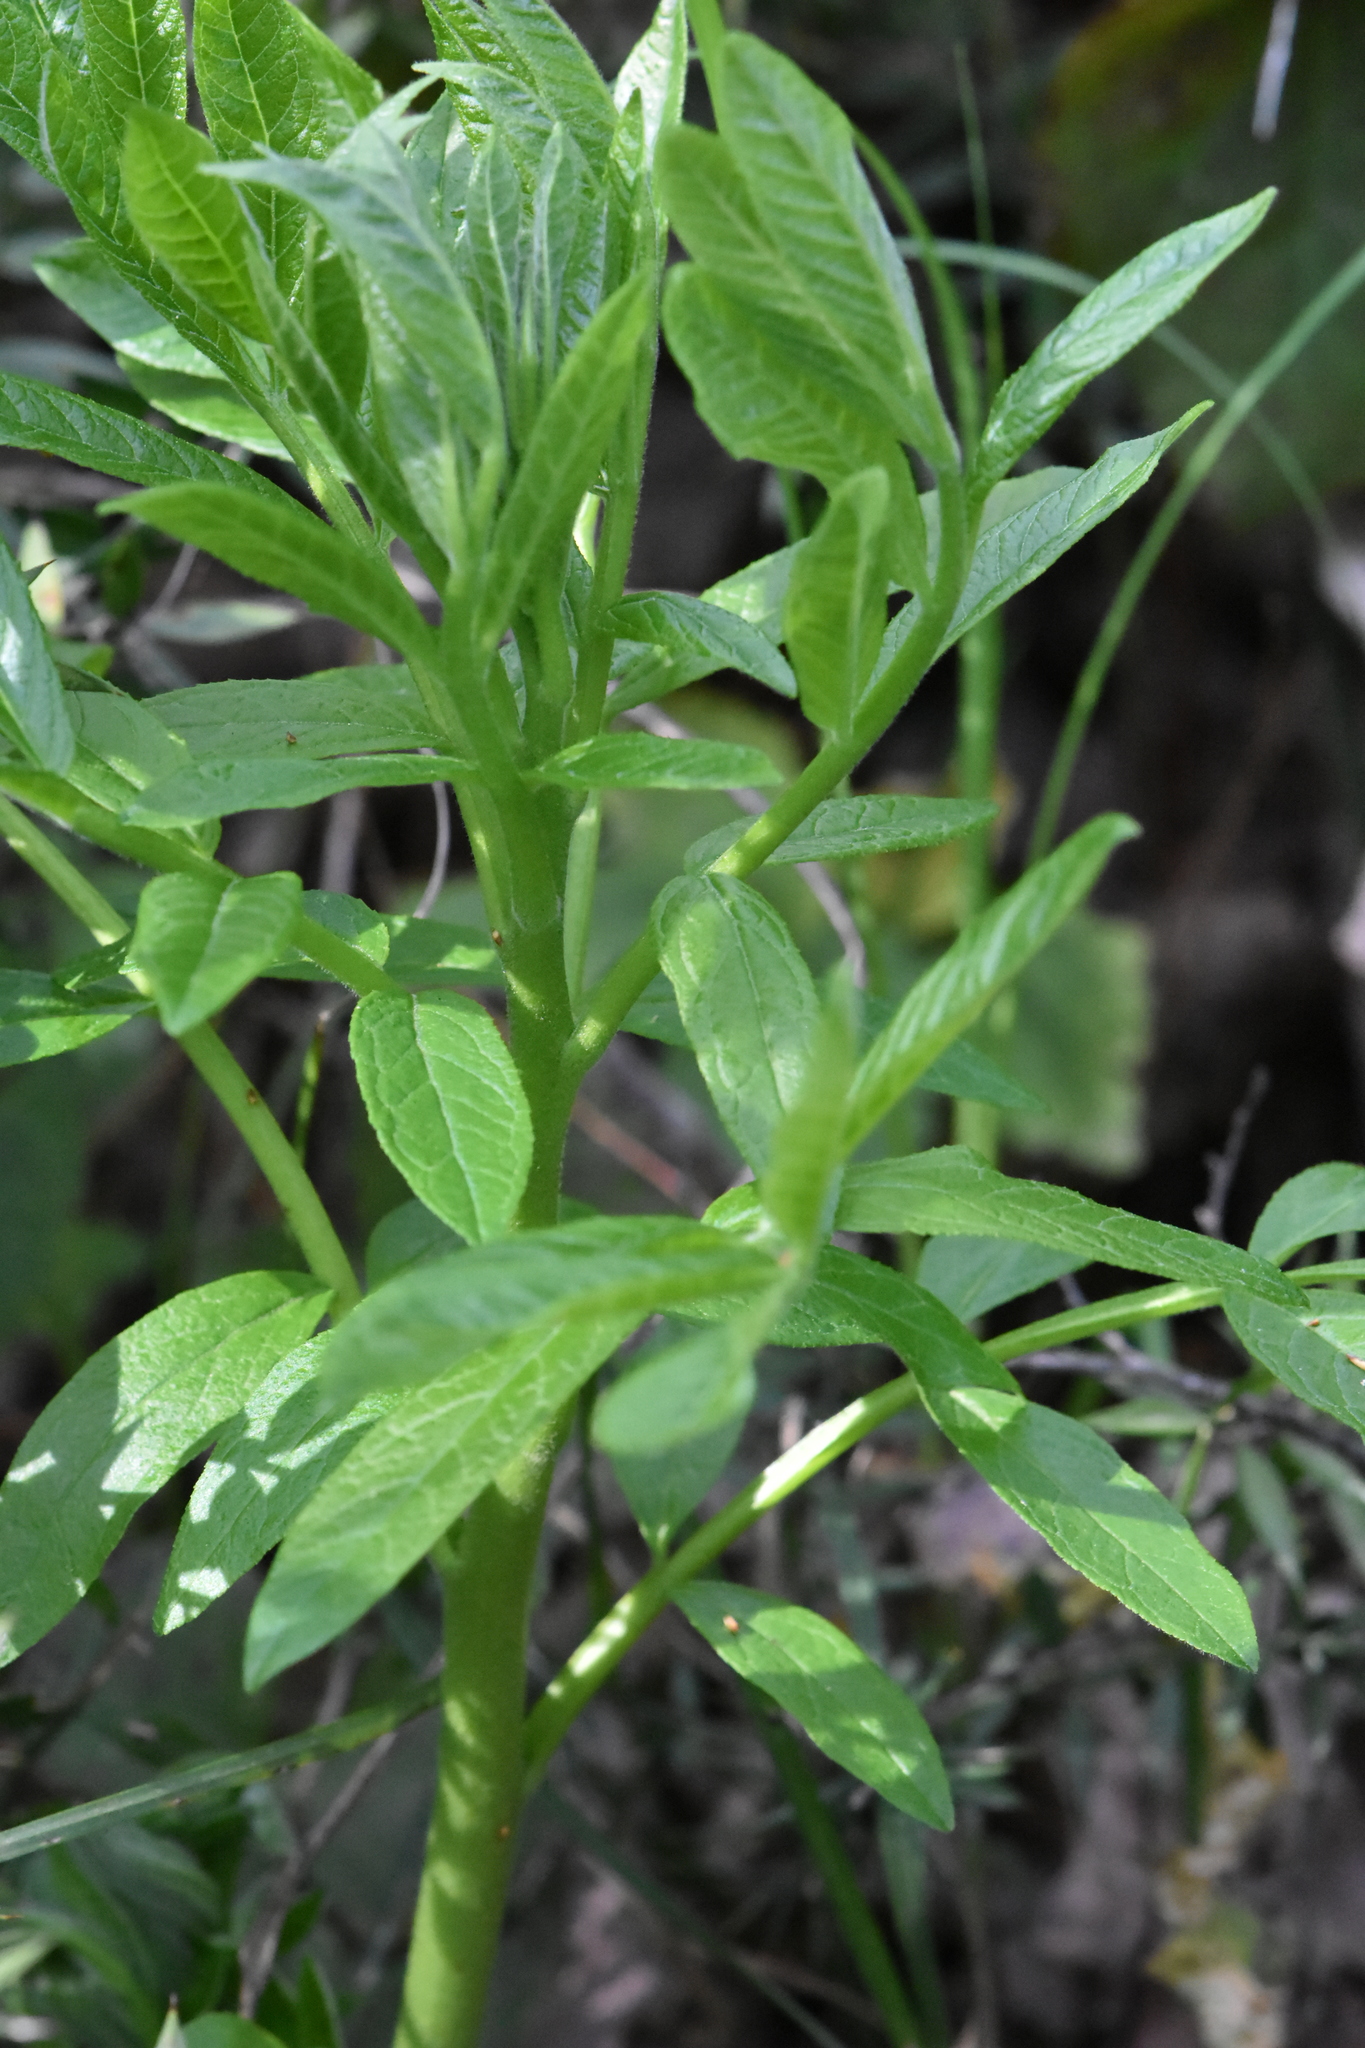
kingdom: Plantae
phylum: Tracheophyta
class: Magnoliopsida
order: Sapindales
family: Rutaceae
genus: Dictamnus
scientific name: Dictamnus albus
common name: Gasplant
